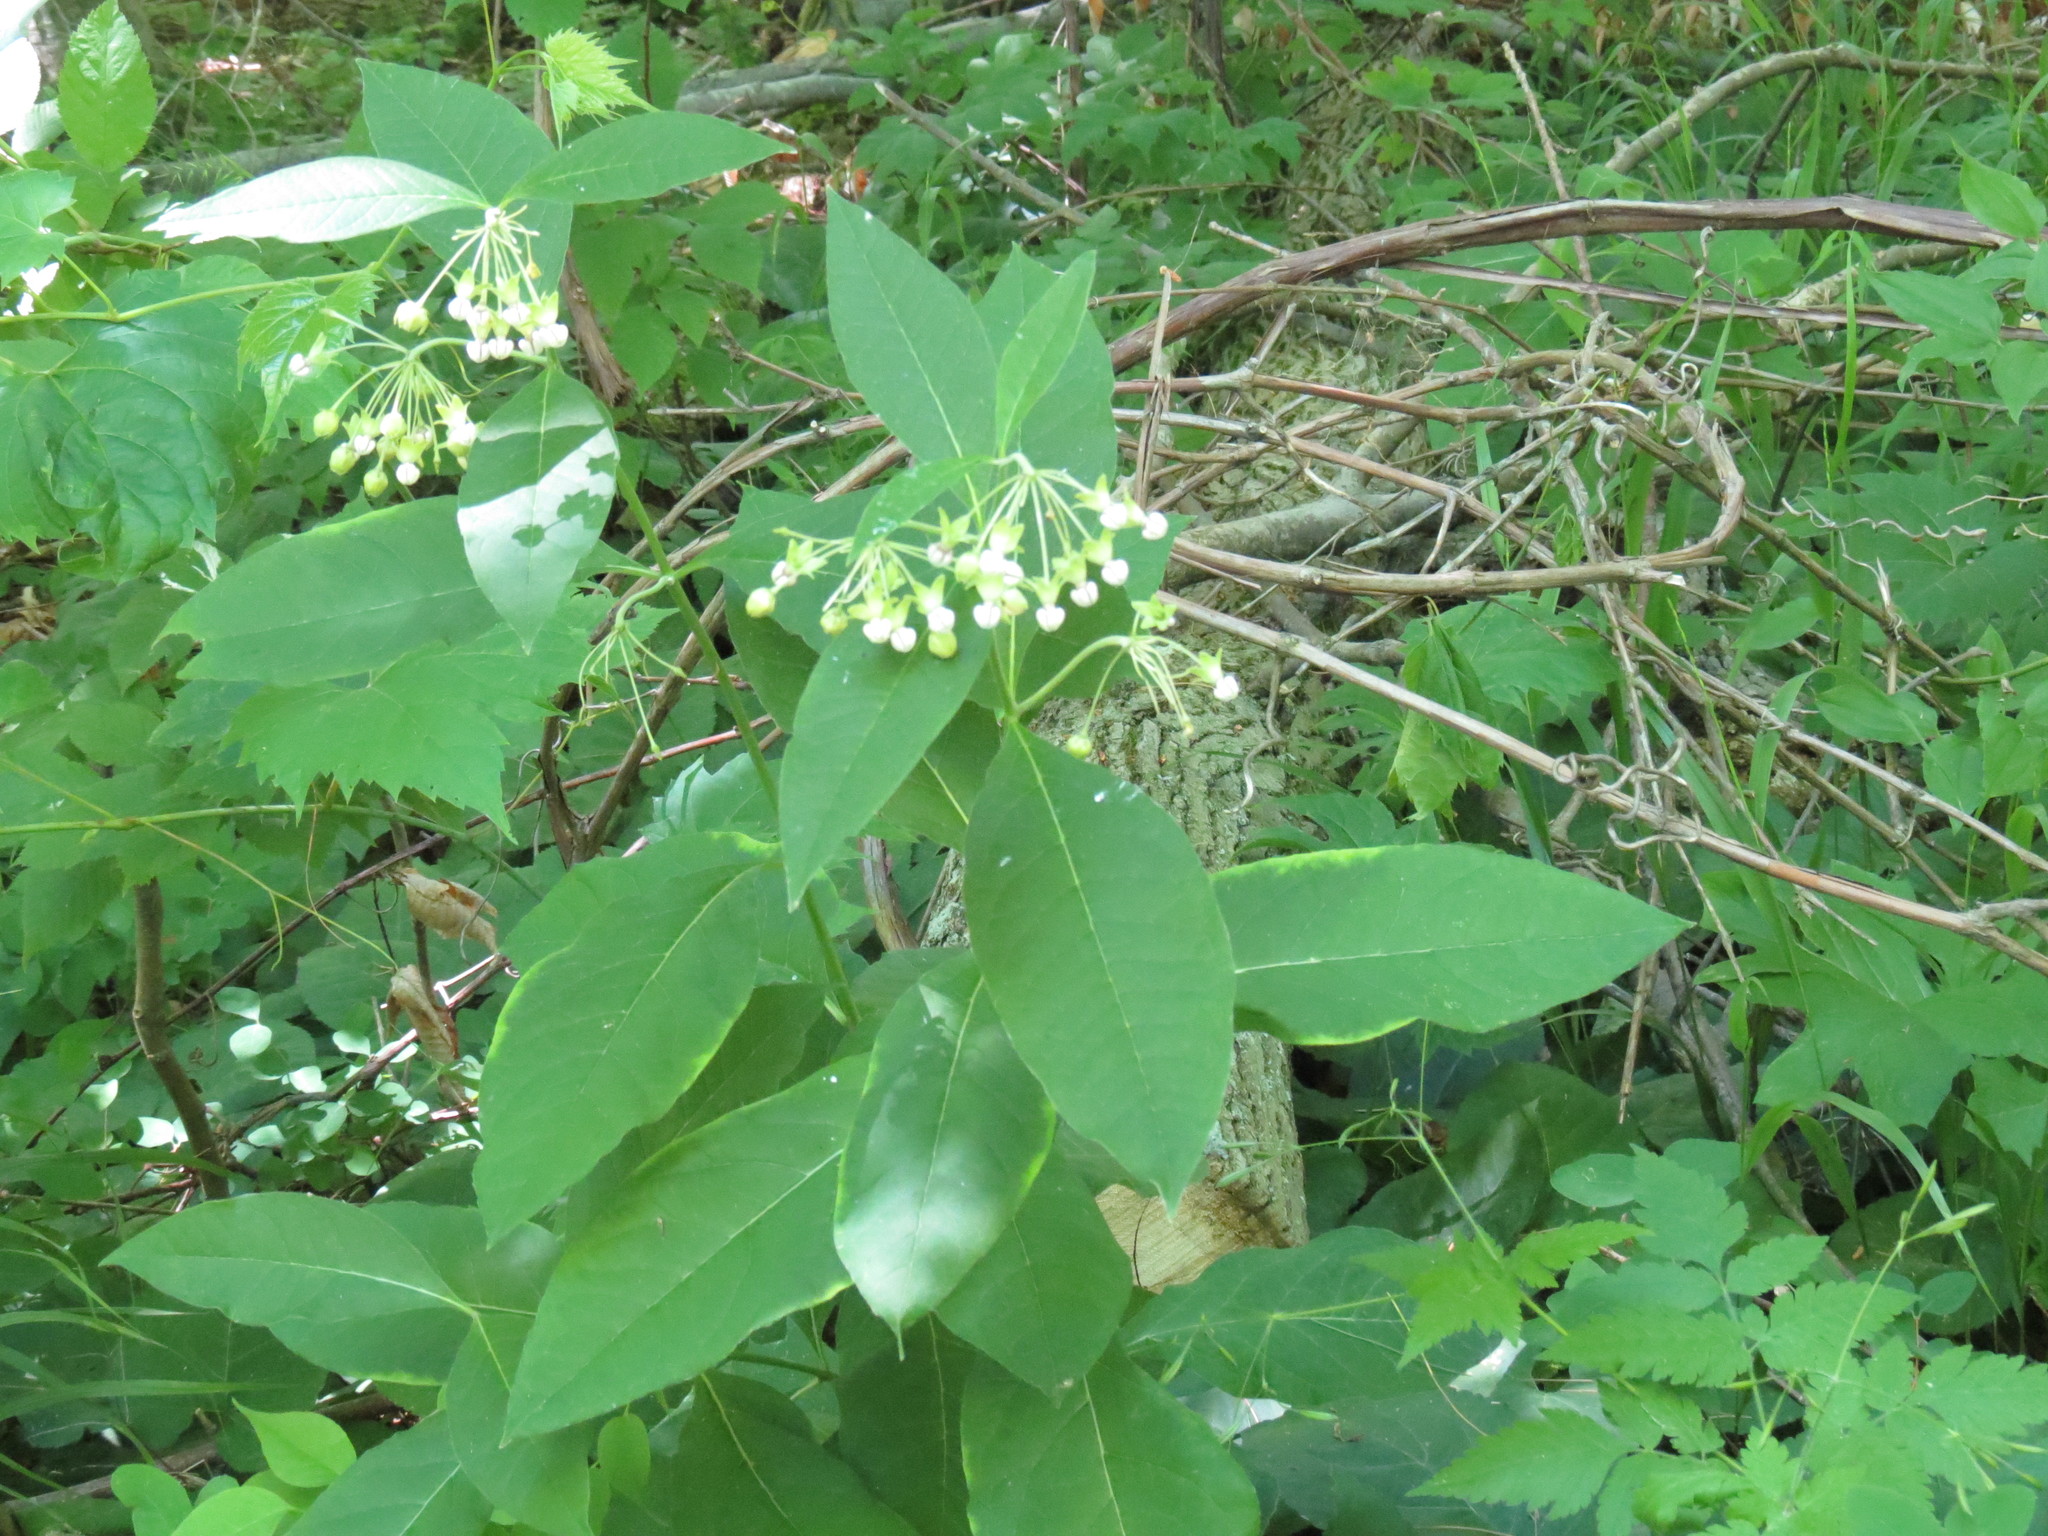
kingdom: Plantae
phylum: Tracheophyta
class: Magnoliopsida
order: Gentianales
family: Apocynaceae
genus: Asclepias
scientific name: Asclepias exaltata
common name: Poke milkweed
